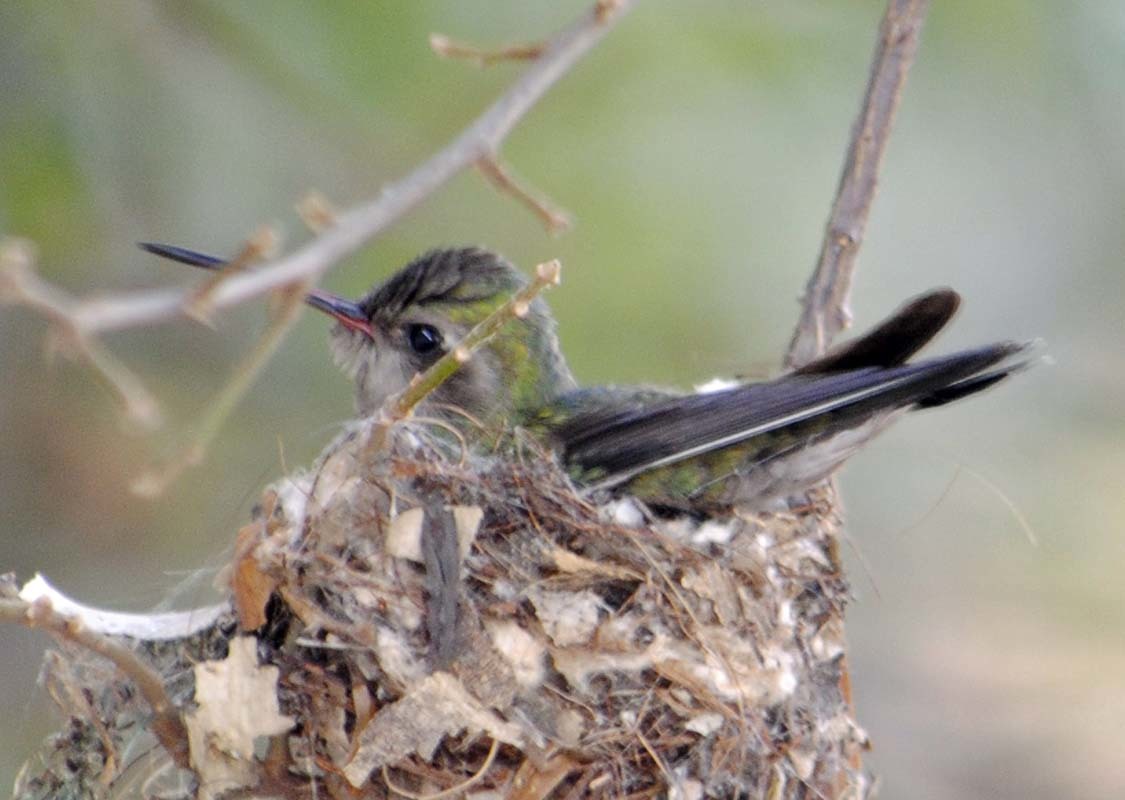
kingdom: Animalia
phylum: Chordata
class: Aves
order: Apodiformes
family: Trochilidae
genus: Cynanthus
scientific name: Cynanthus latirostris
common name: Broad-billed hummingbird
